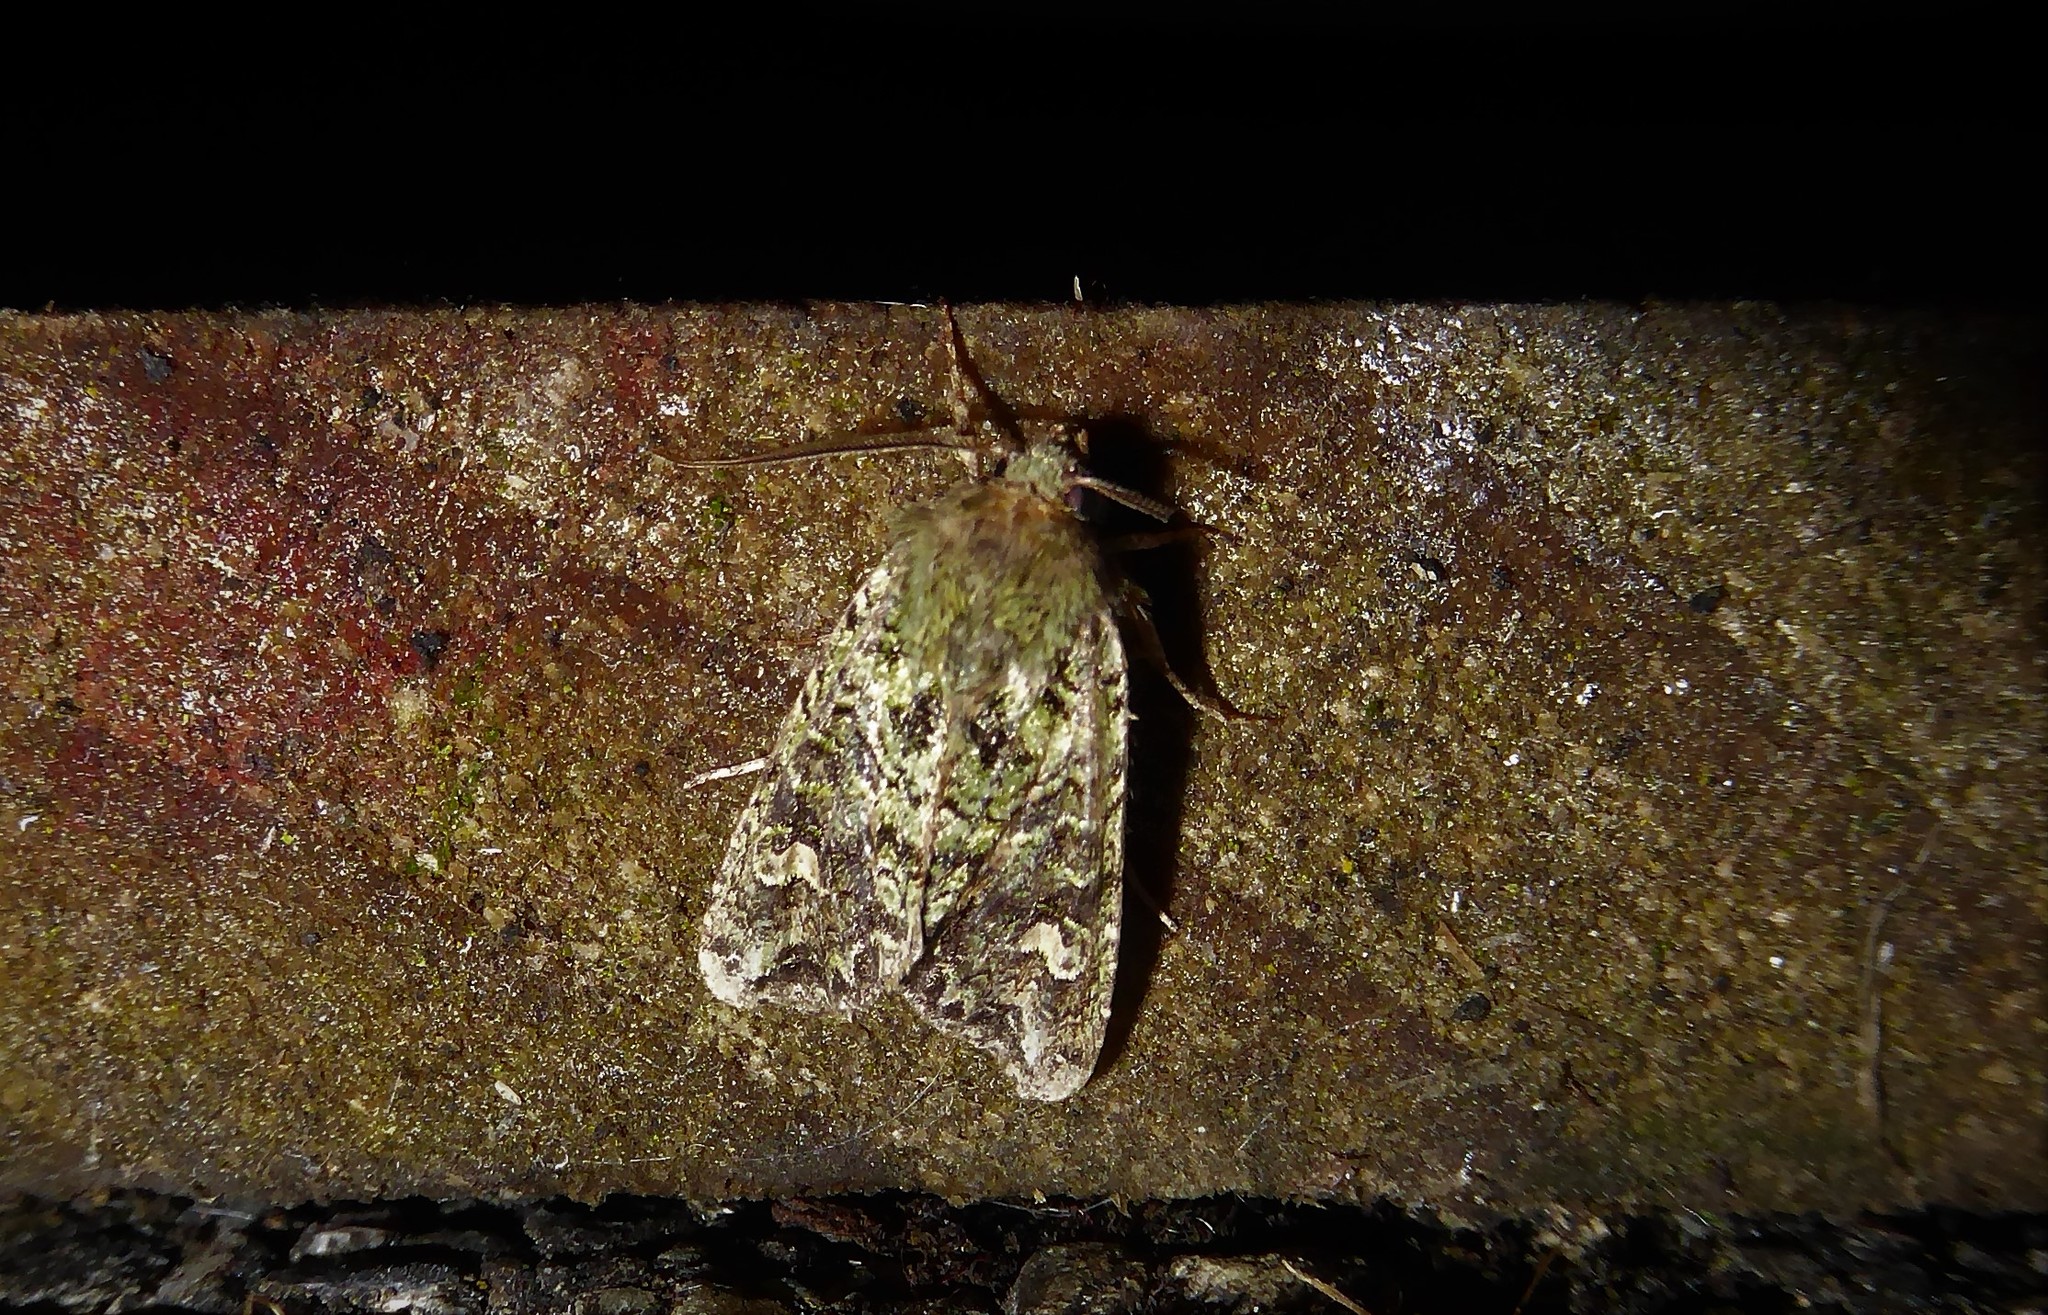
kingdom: Animalia
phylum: Arthropoda
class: Insecta
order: Lepidoptera
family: Noctuidae
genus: Ichneutica
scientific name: Ichneutica
